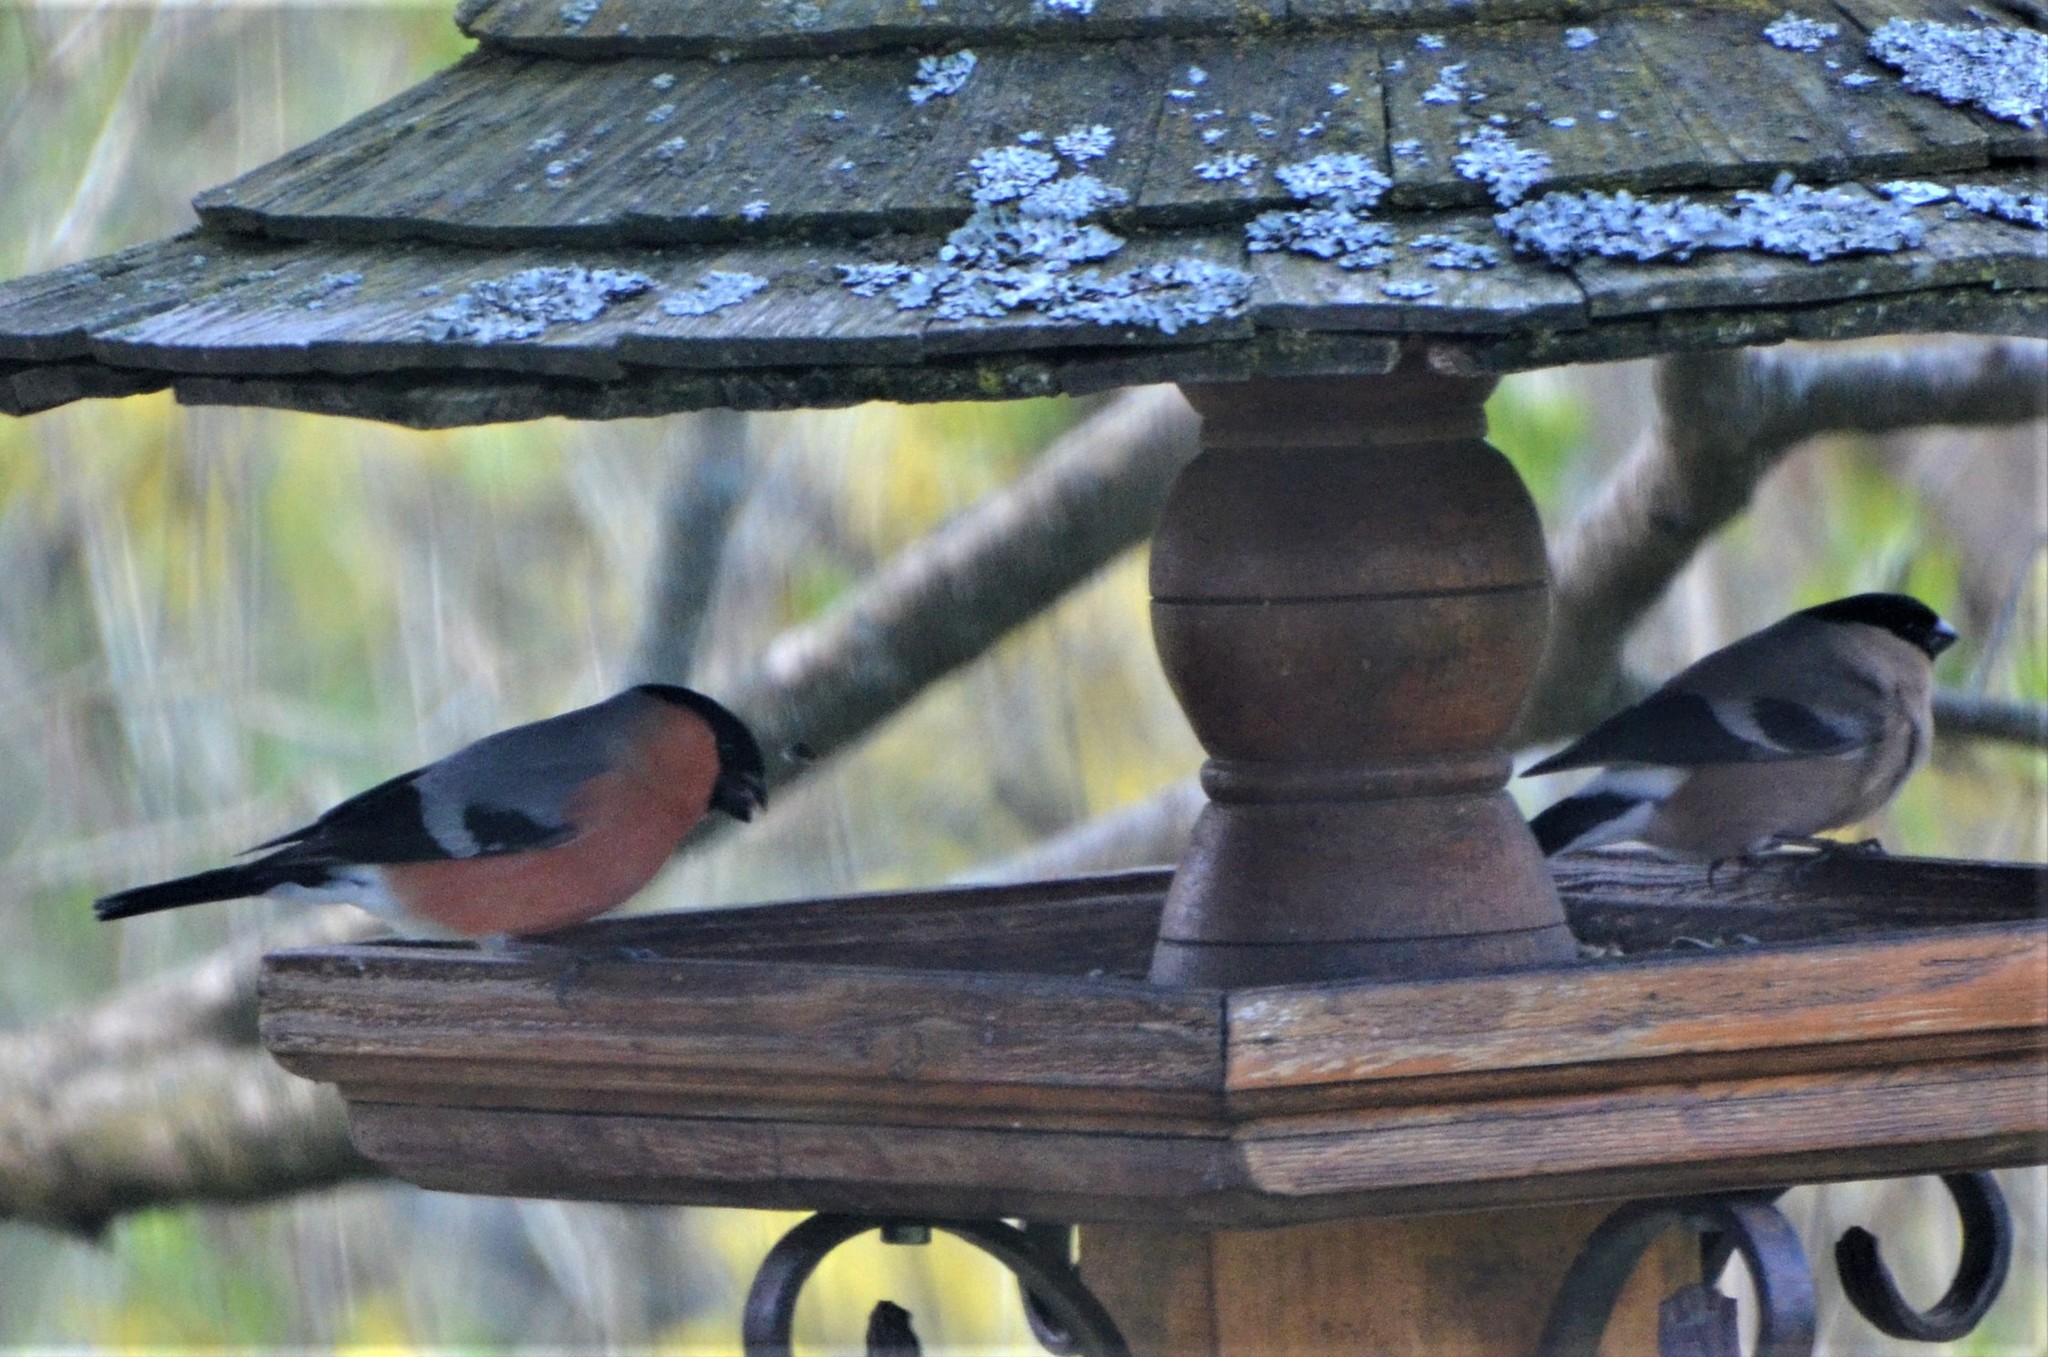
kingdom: Animalia
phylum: Chordata
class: Aves
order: Passeriformes
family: Fringillidae
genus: Pyrrhula
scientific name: Pyrrhula pyrrhula
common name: Eurasian bullfinch
